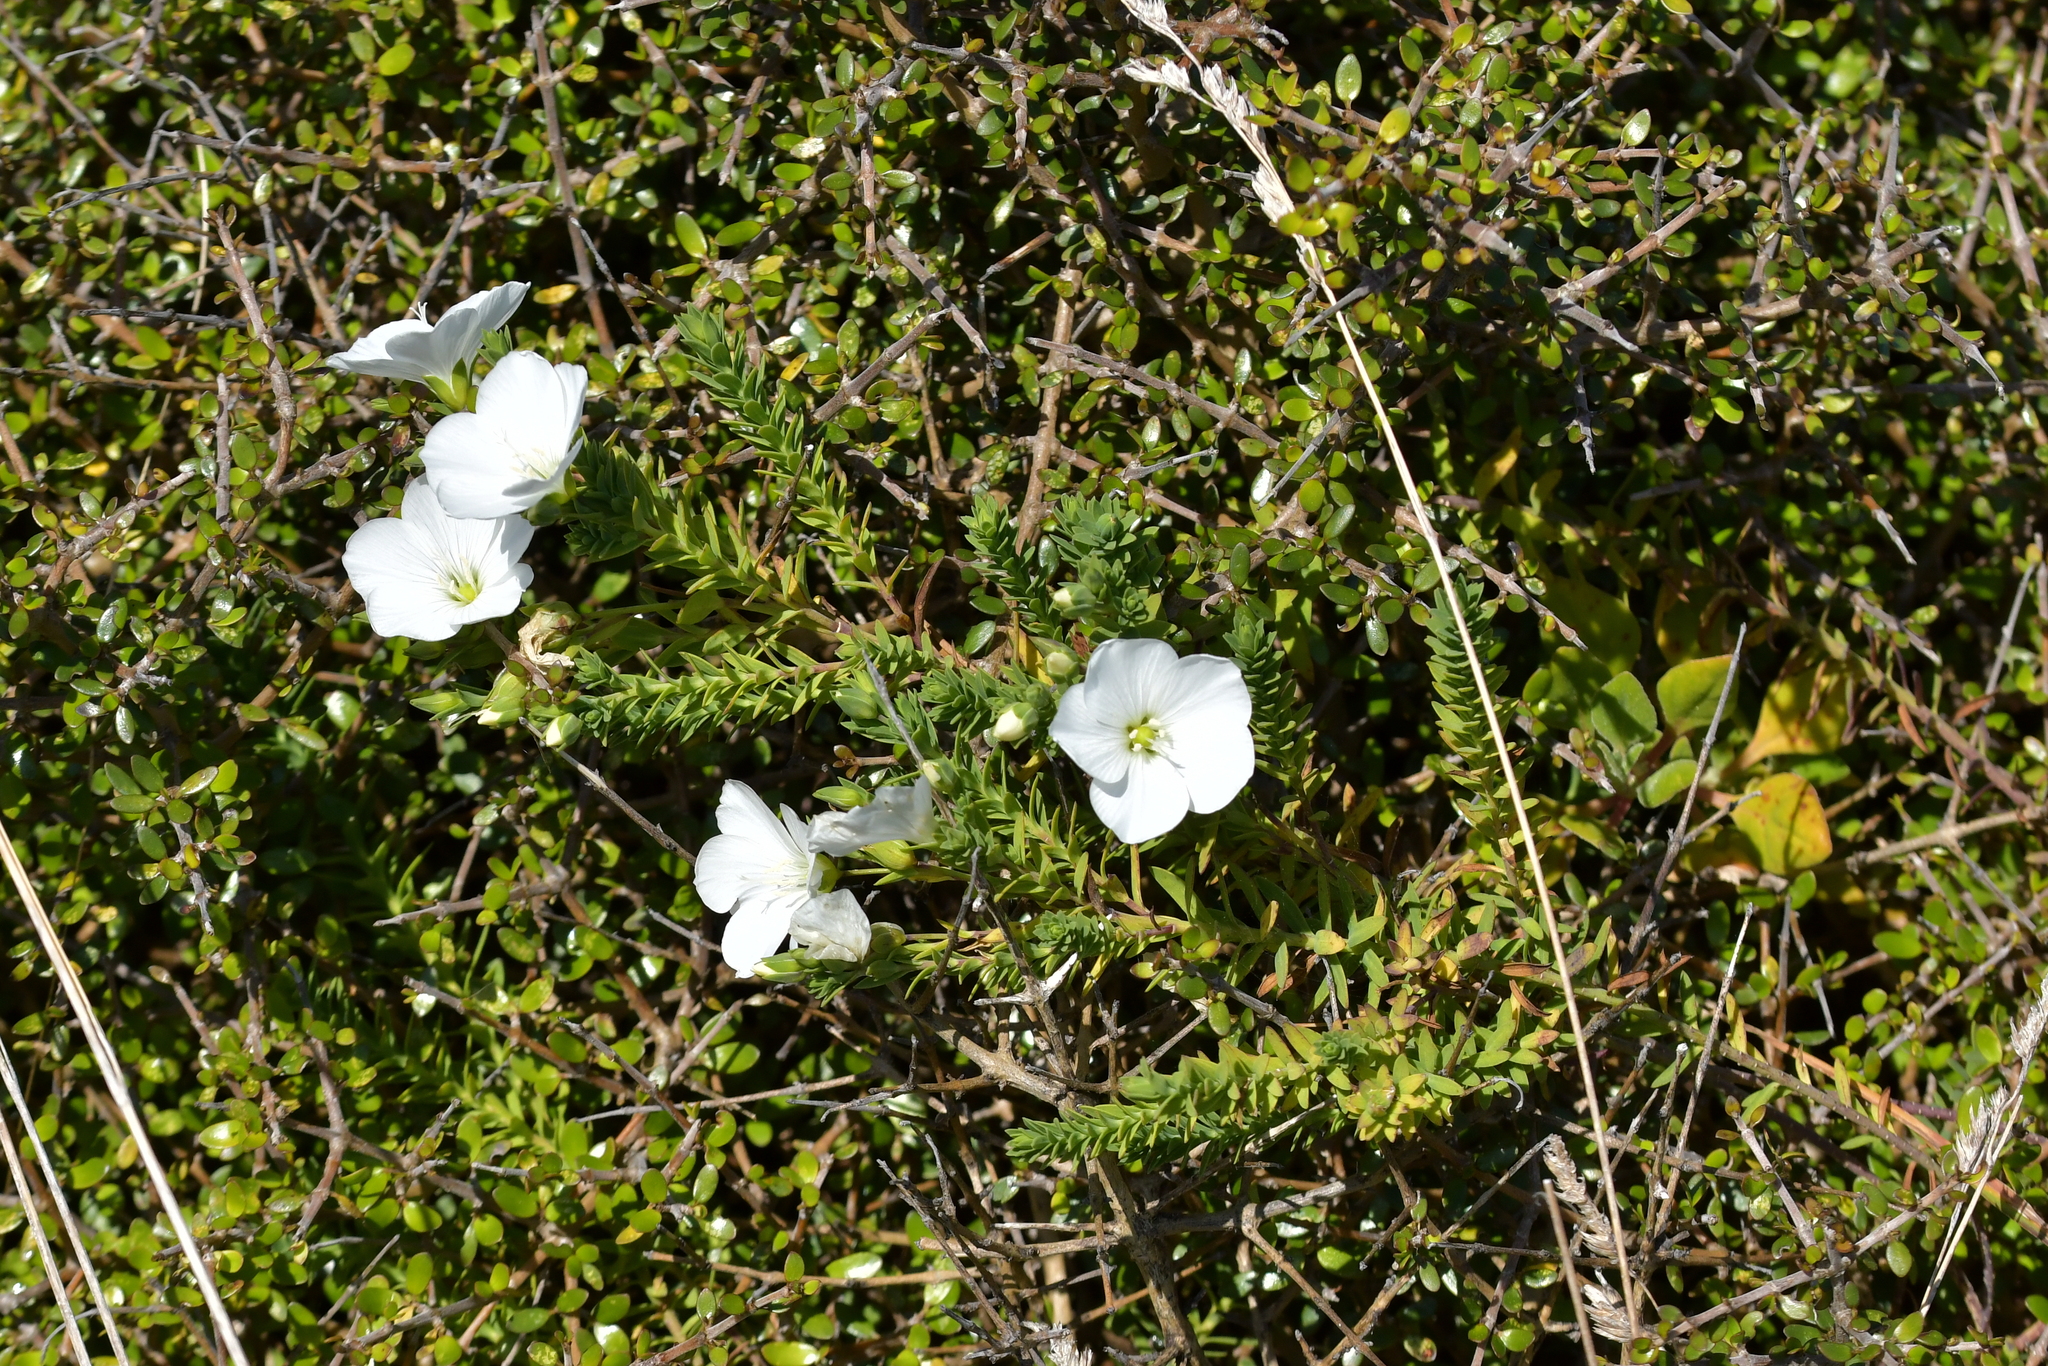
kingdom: Plantae
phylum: Tracheophyta
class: Magnoliopsida
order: Malpighiales
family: Linaceae
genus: Linum
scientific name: Linum monogynum
